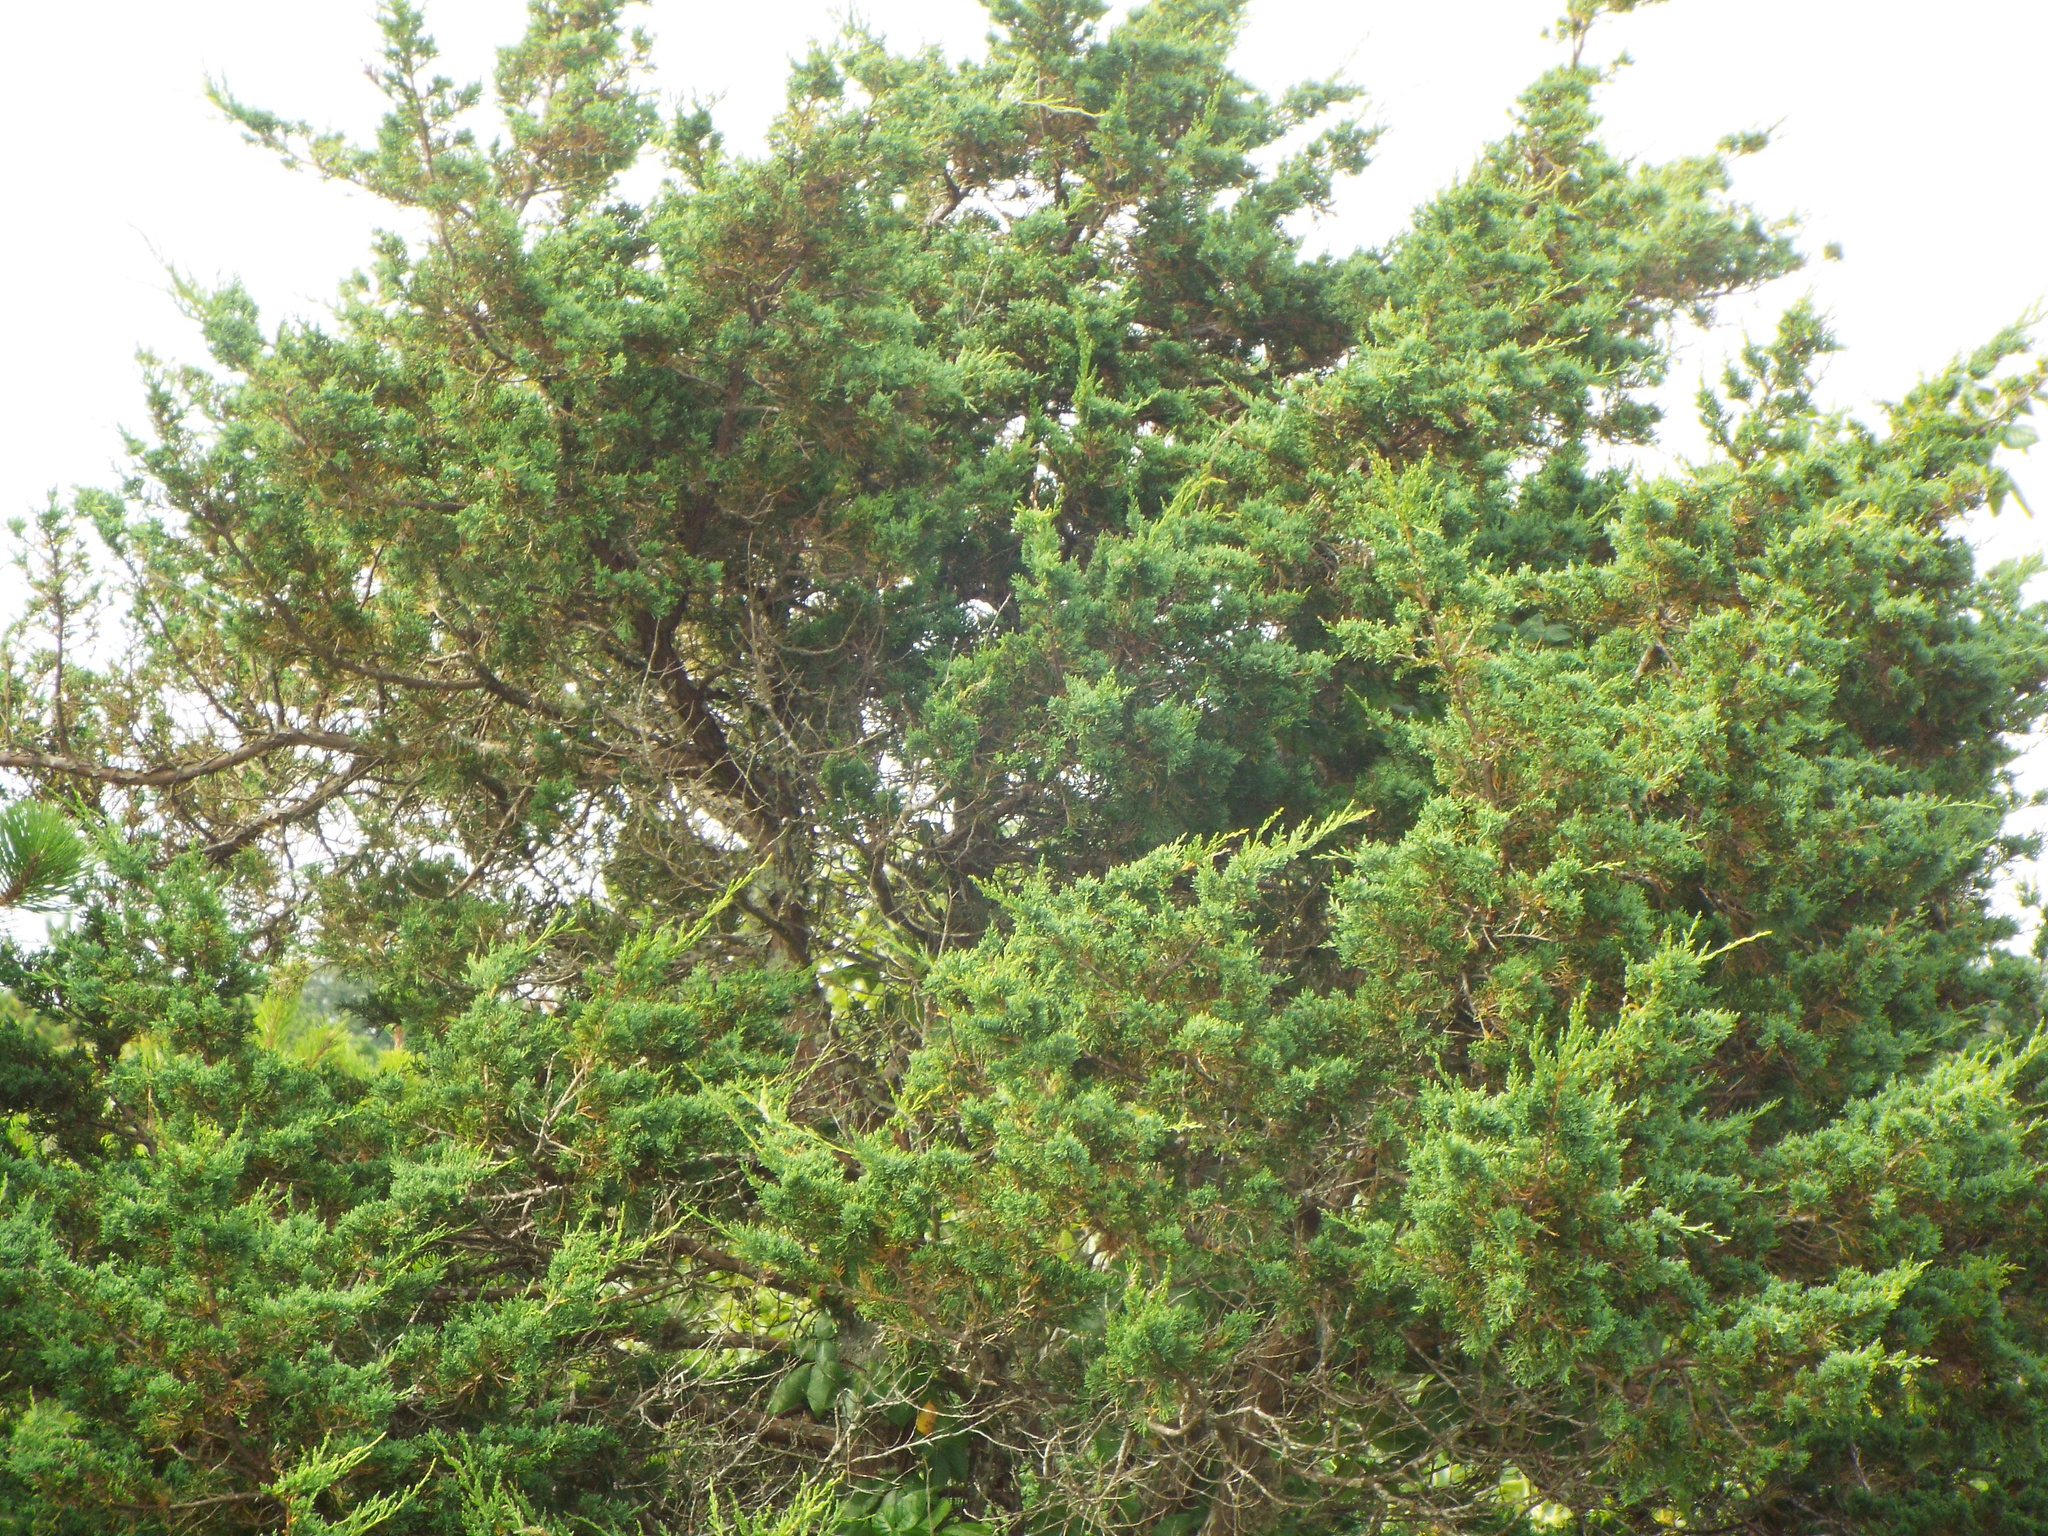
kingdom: Plantae
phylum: Tracheophyta
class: Pinopsida
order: Pinales
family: Cupressaceae
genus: Juniperus
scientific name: Juniperus virginiana
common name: Red juniper
